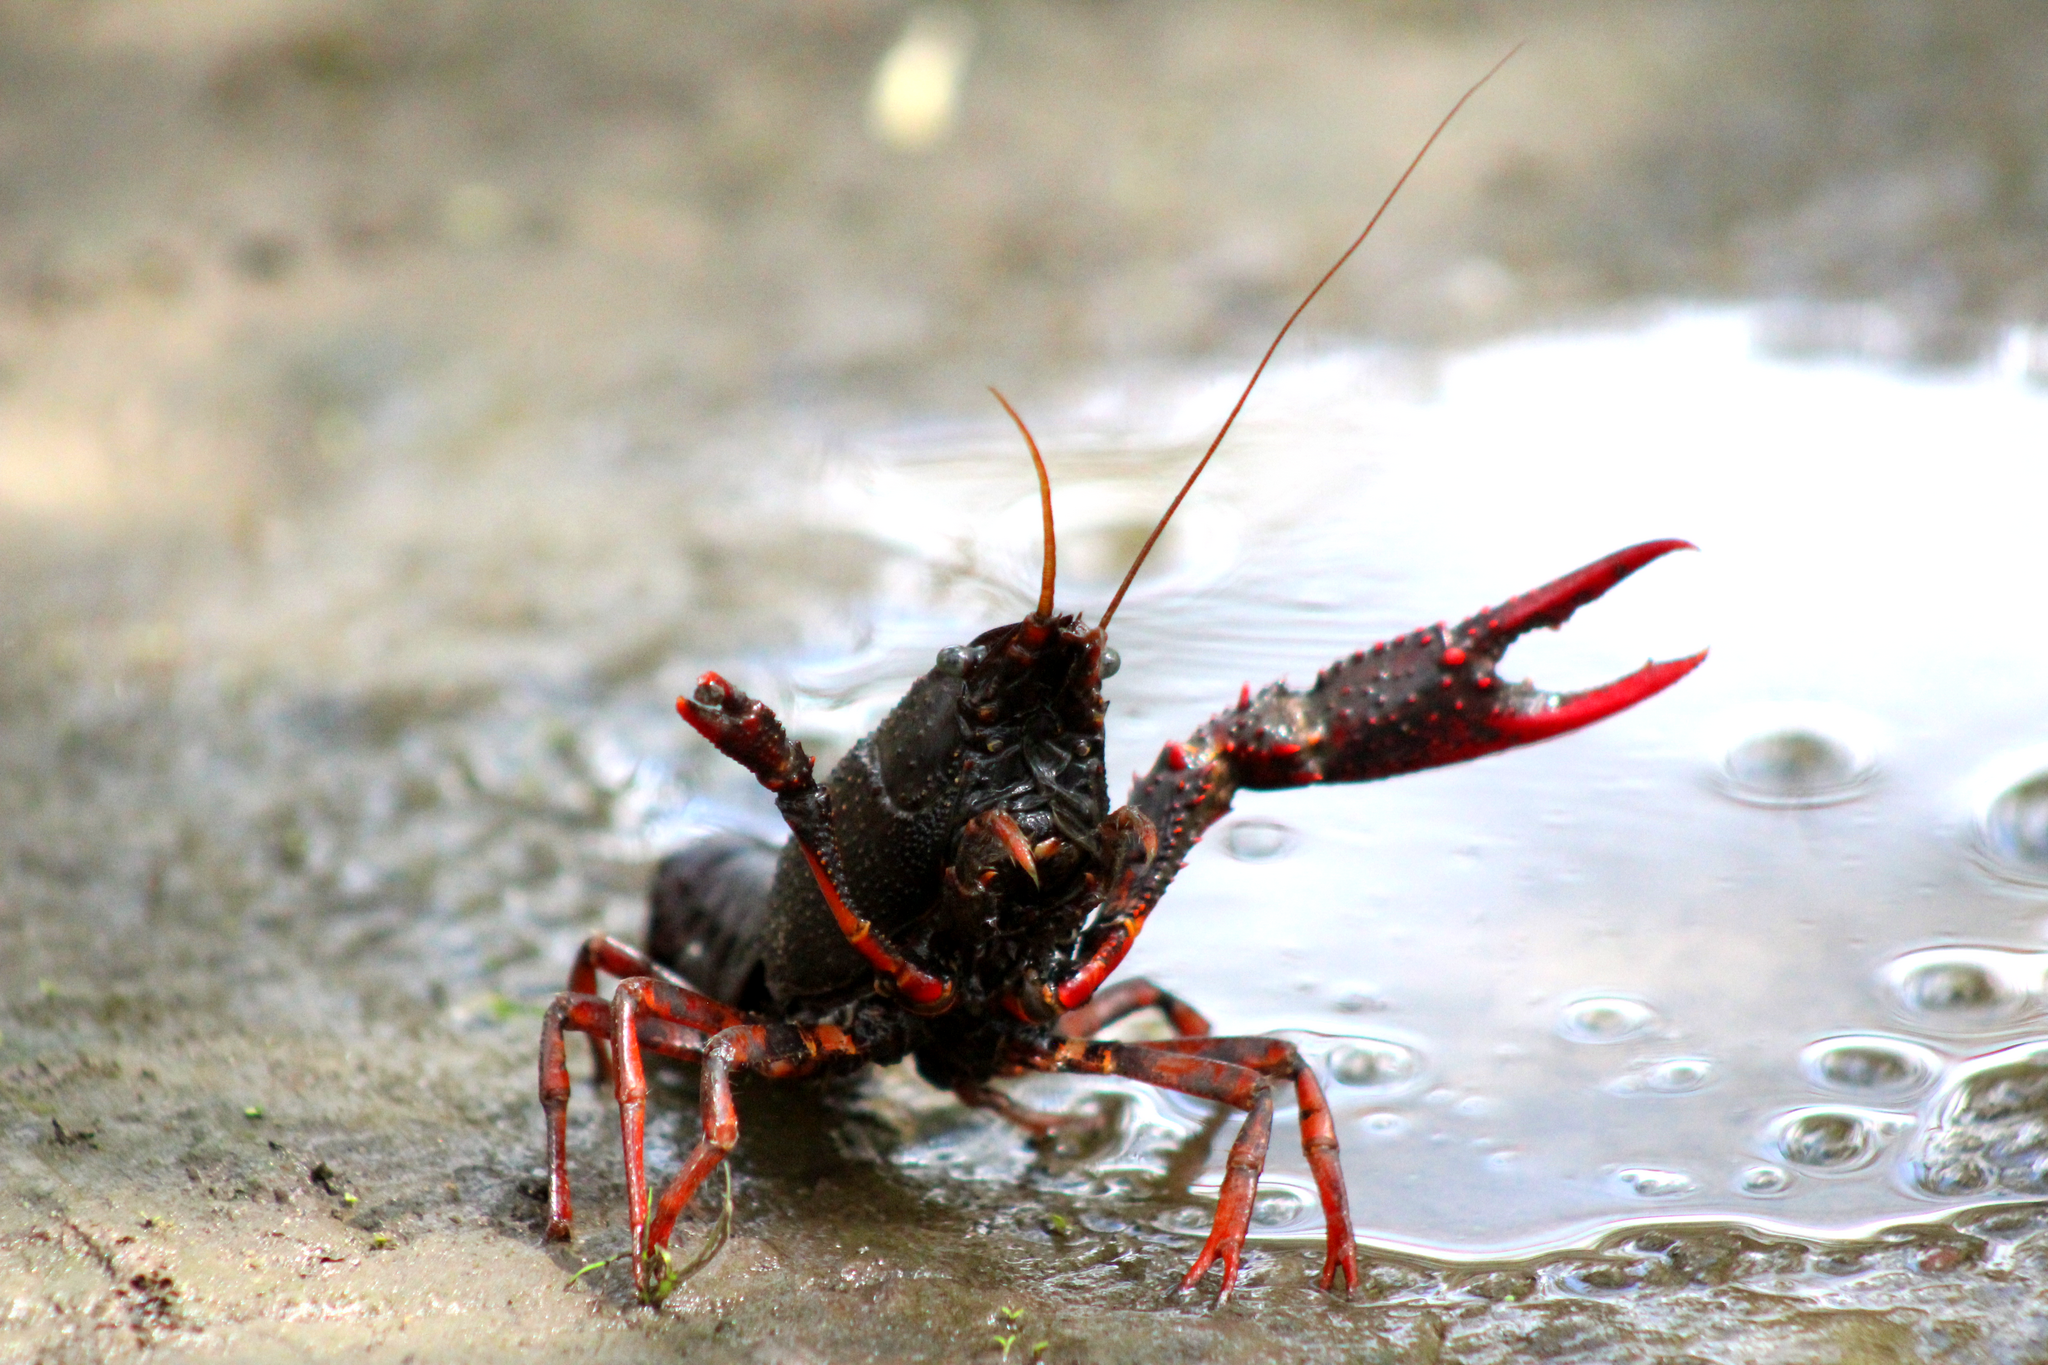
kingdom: Animalia
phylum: Arthropoda
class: Malacostraca
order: Decapoda
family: Cambaridae
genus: Procambarus
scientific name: Procambarus clarkii
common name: Red swamp crayfish
